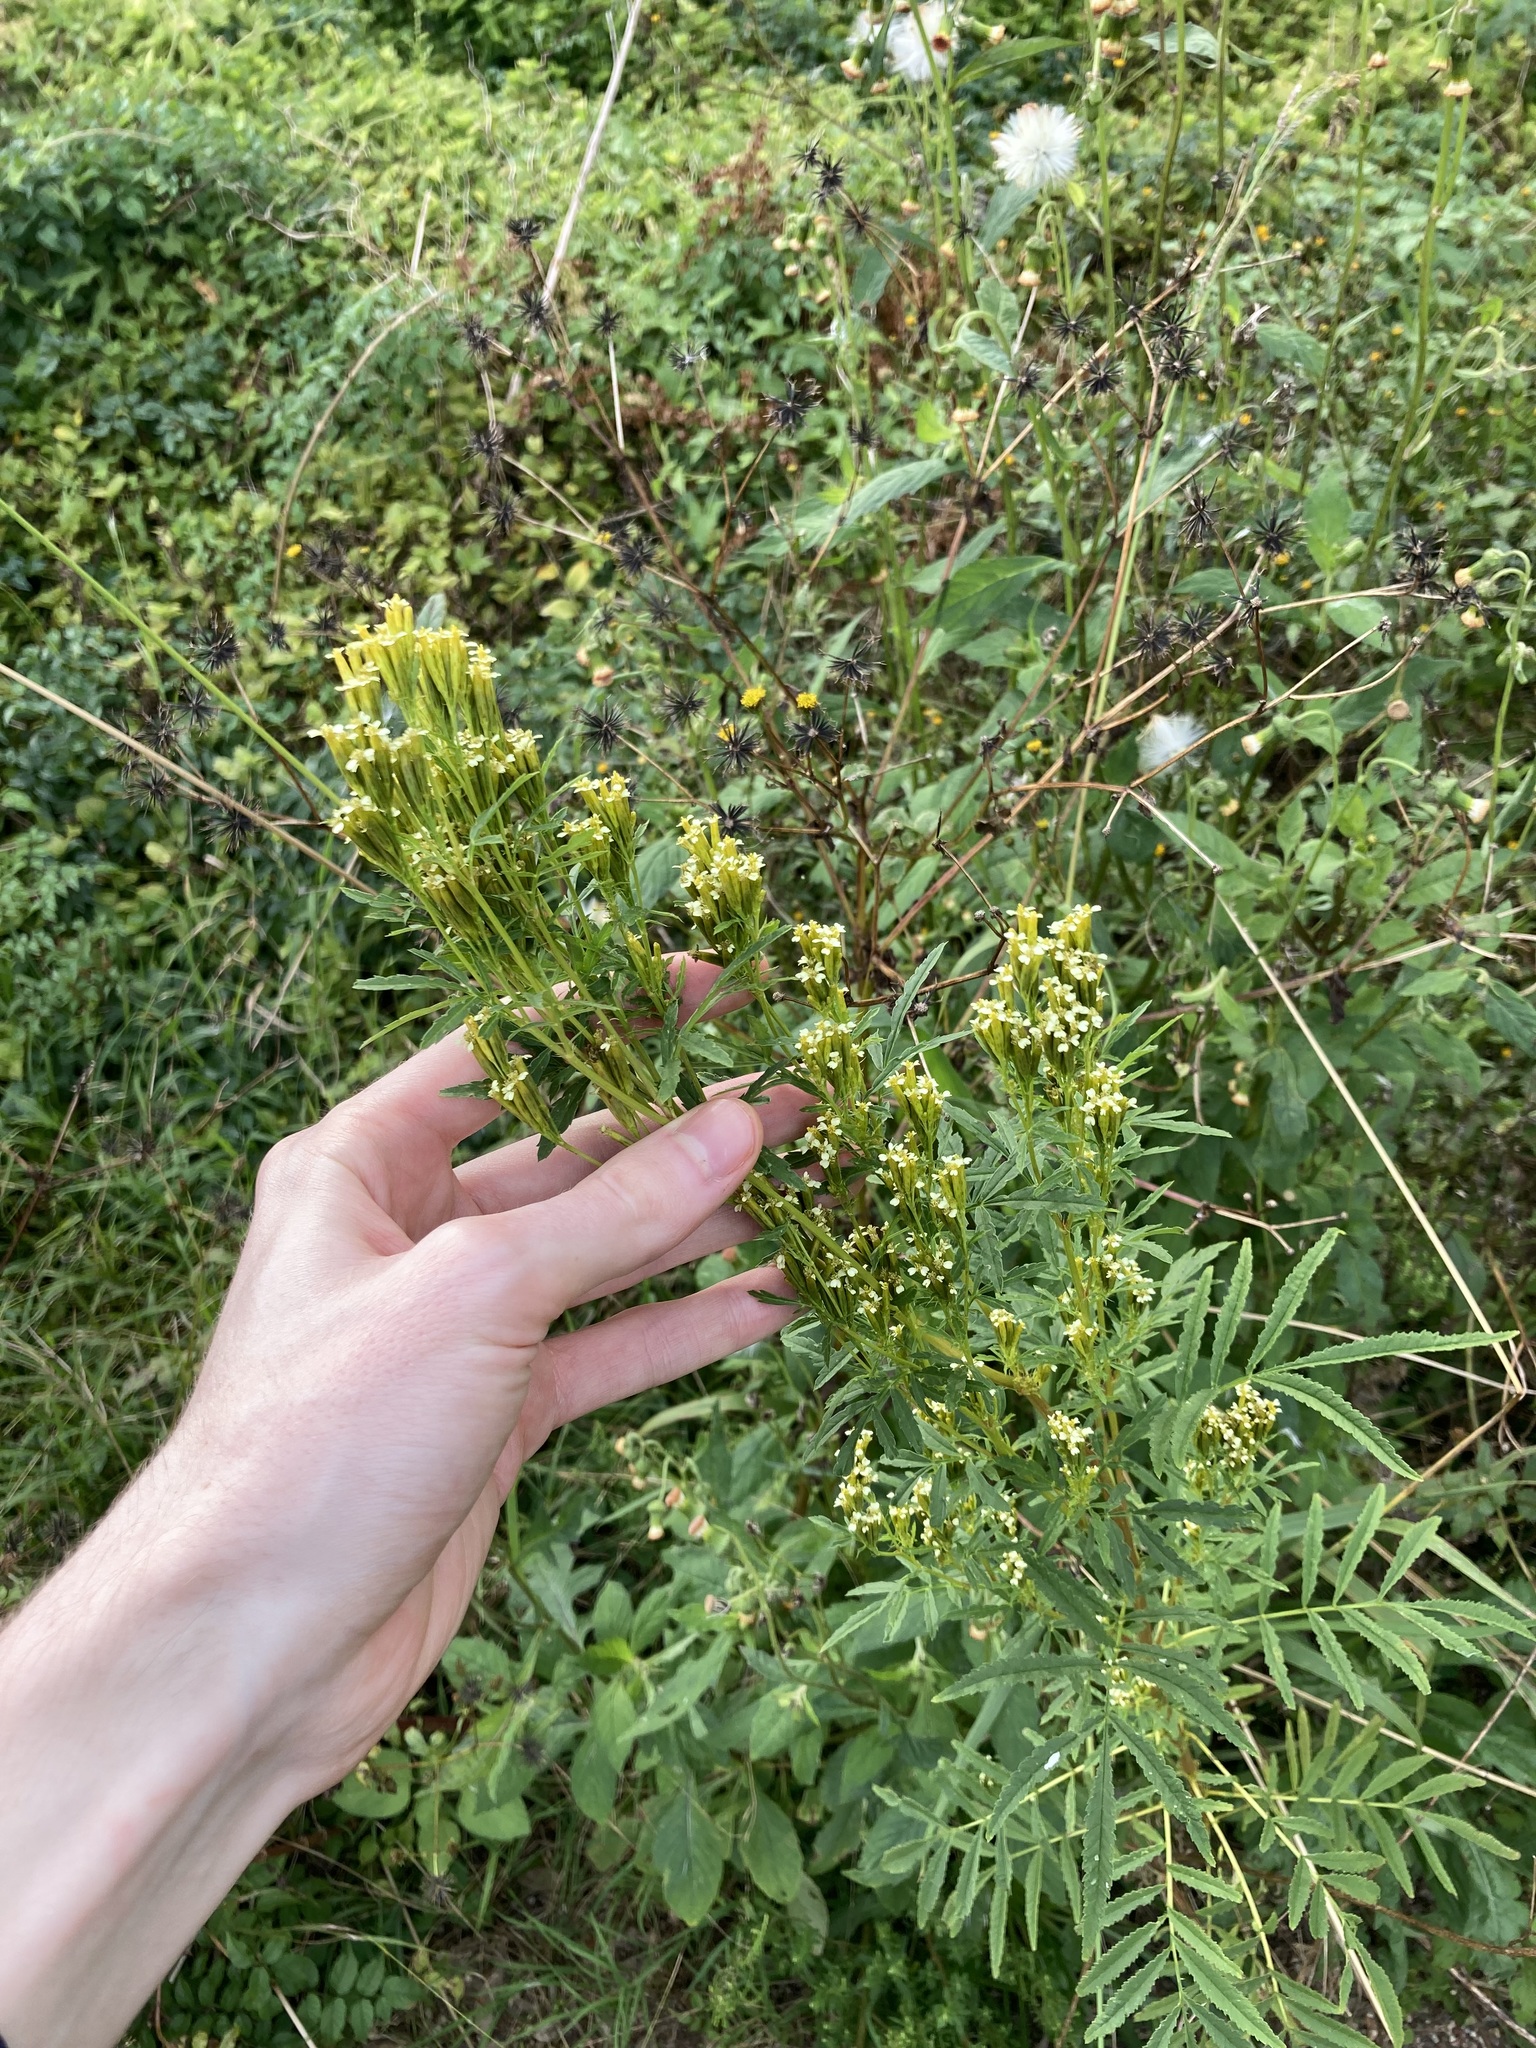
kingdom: Plantae
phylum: Tracheophyta
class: Magnoliopsida
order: Asterales
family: Asteraceae
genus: Tagetes
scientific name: Tagetes minuta
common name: Muster john henry
